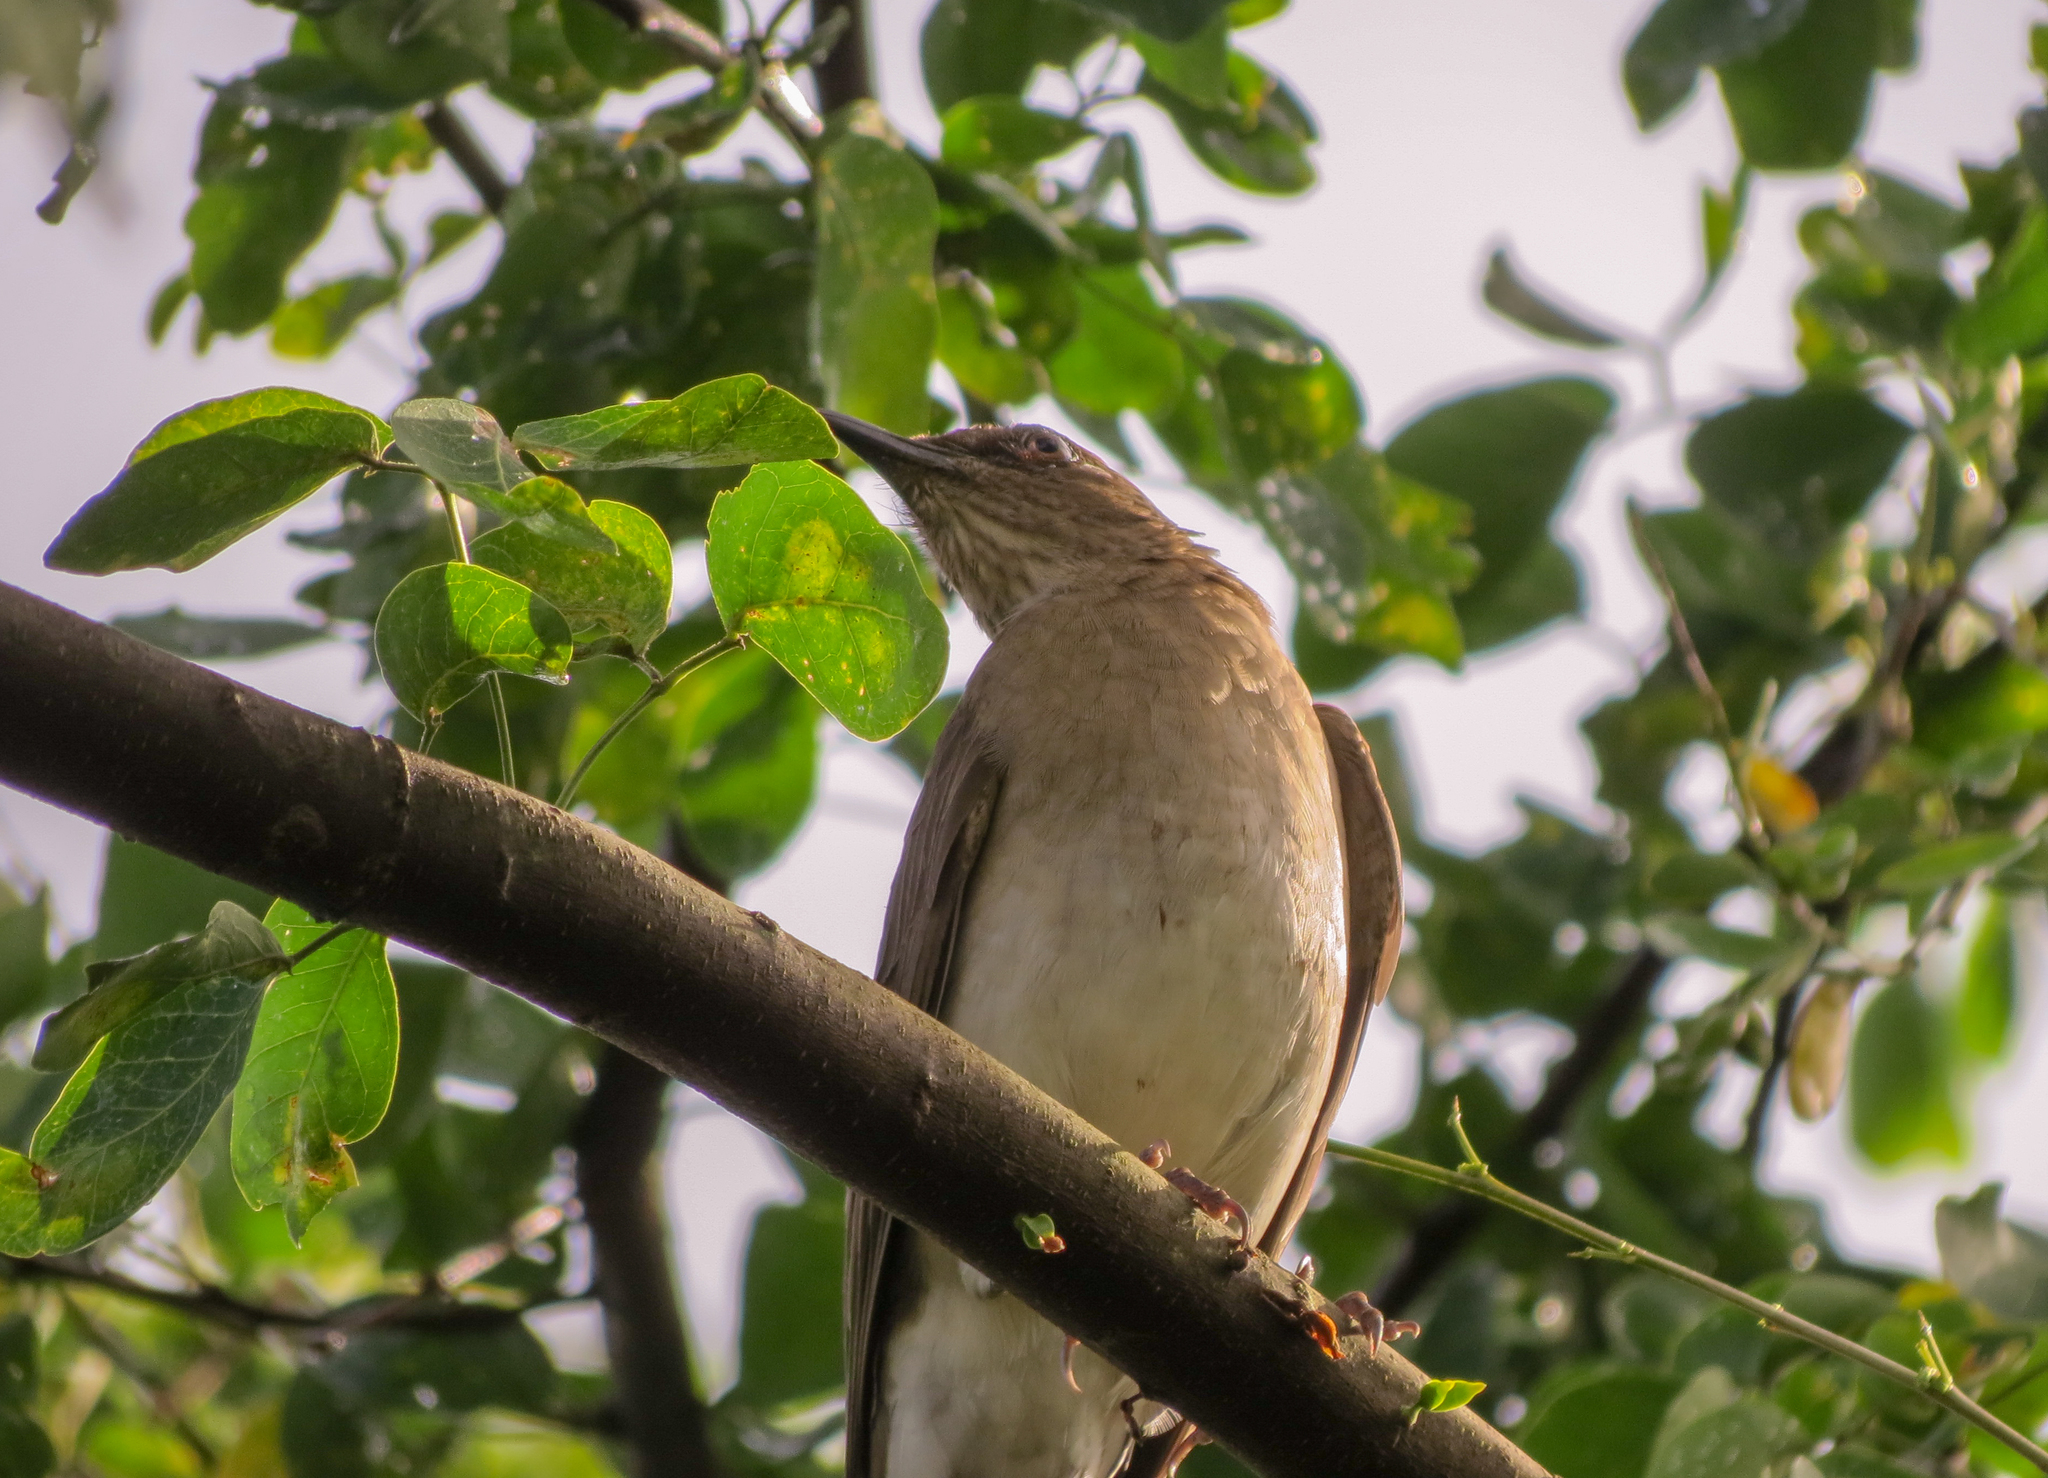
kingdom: Animalia
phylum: Chordata
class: Aves
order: Passeriformes
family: Turdidae
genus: Turdus
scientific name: Turdus ignobilis
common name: Black-billed thrush
